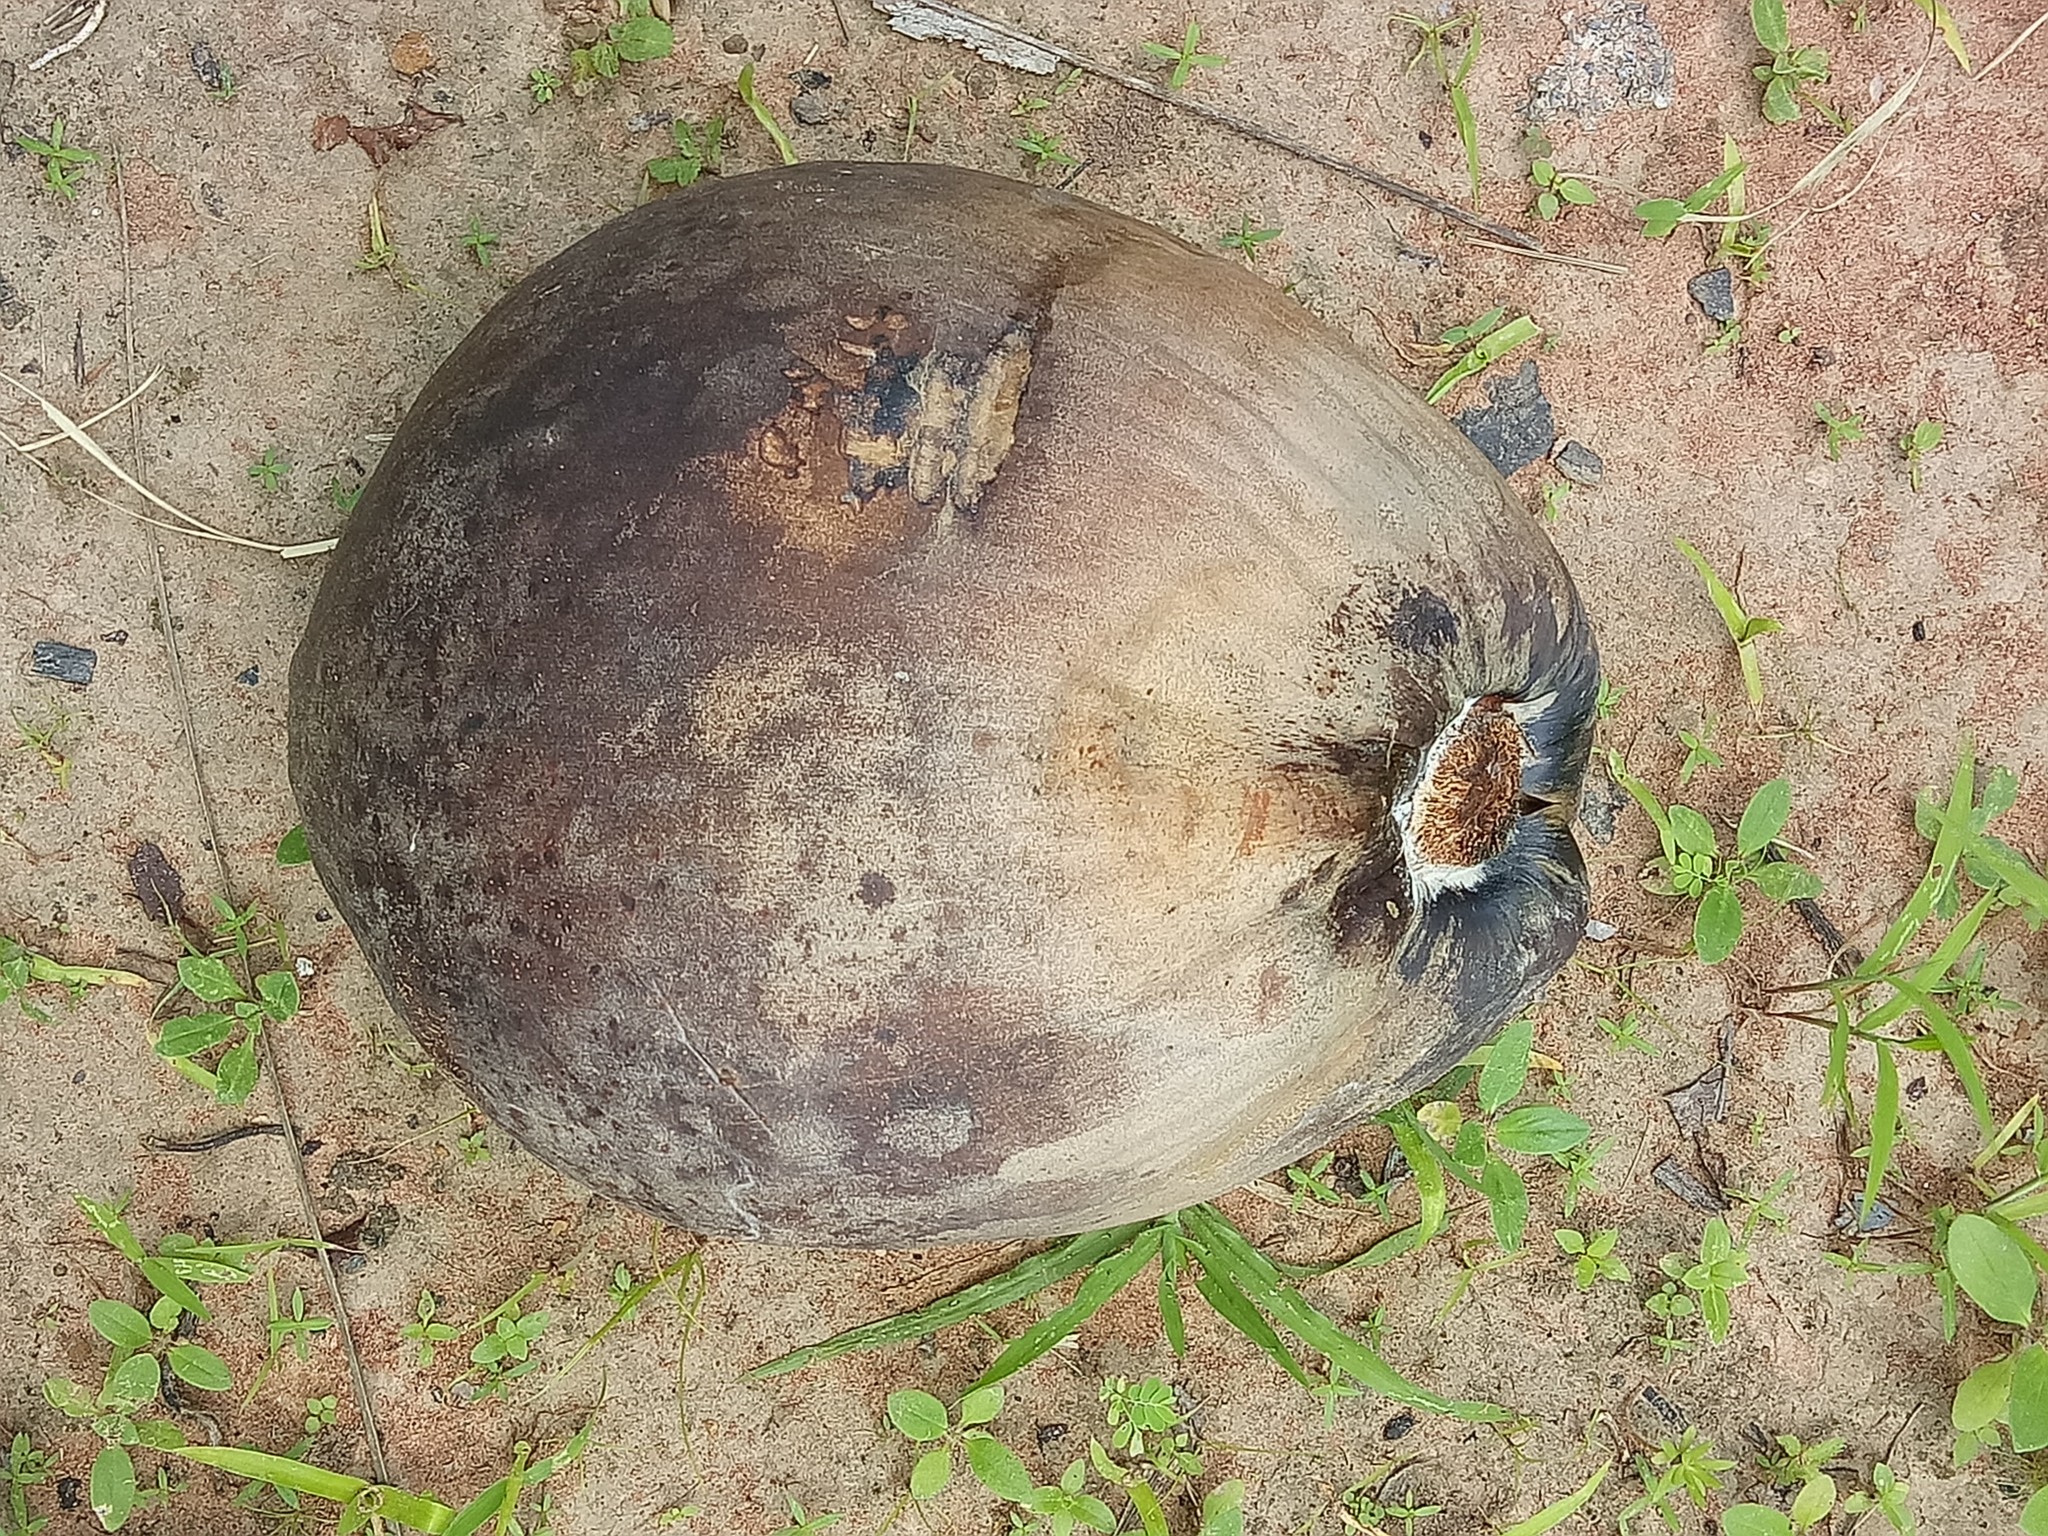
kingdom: Plantae
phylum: Tracheophyta
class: Liliopsida
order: Arecales
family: Arecaceae
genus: Cocos
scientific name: Cocos nucifera
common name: Coconut palm
